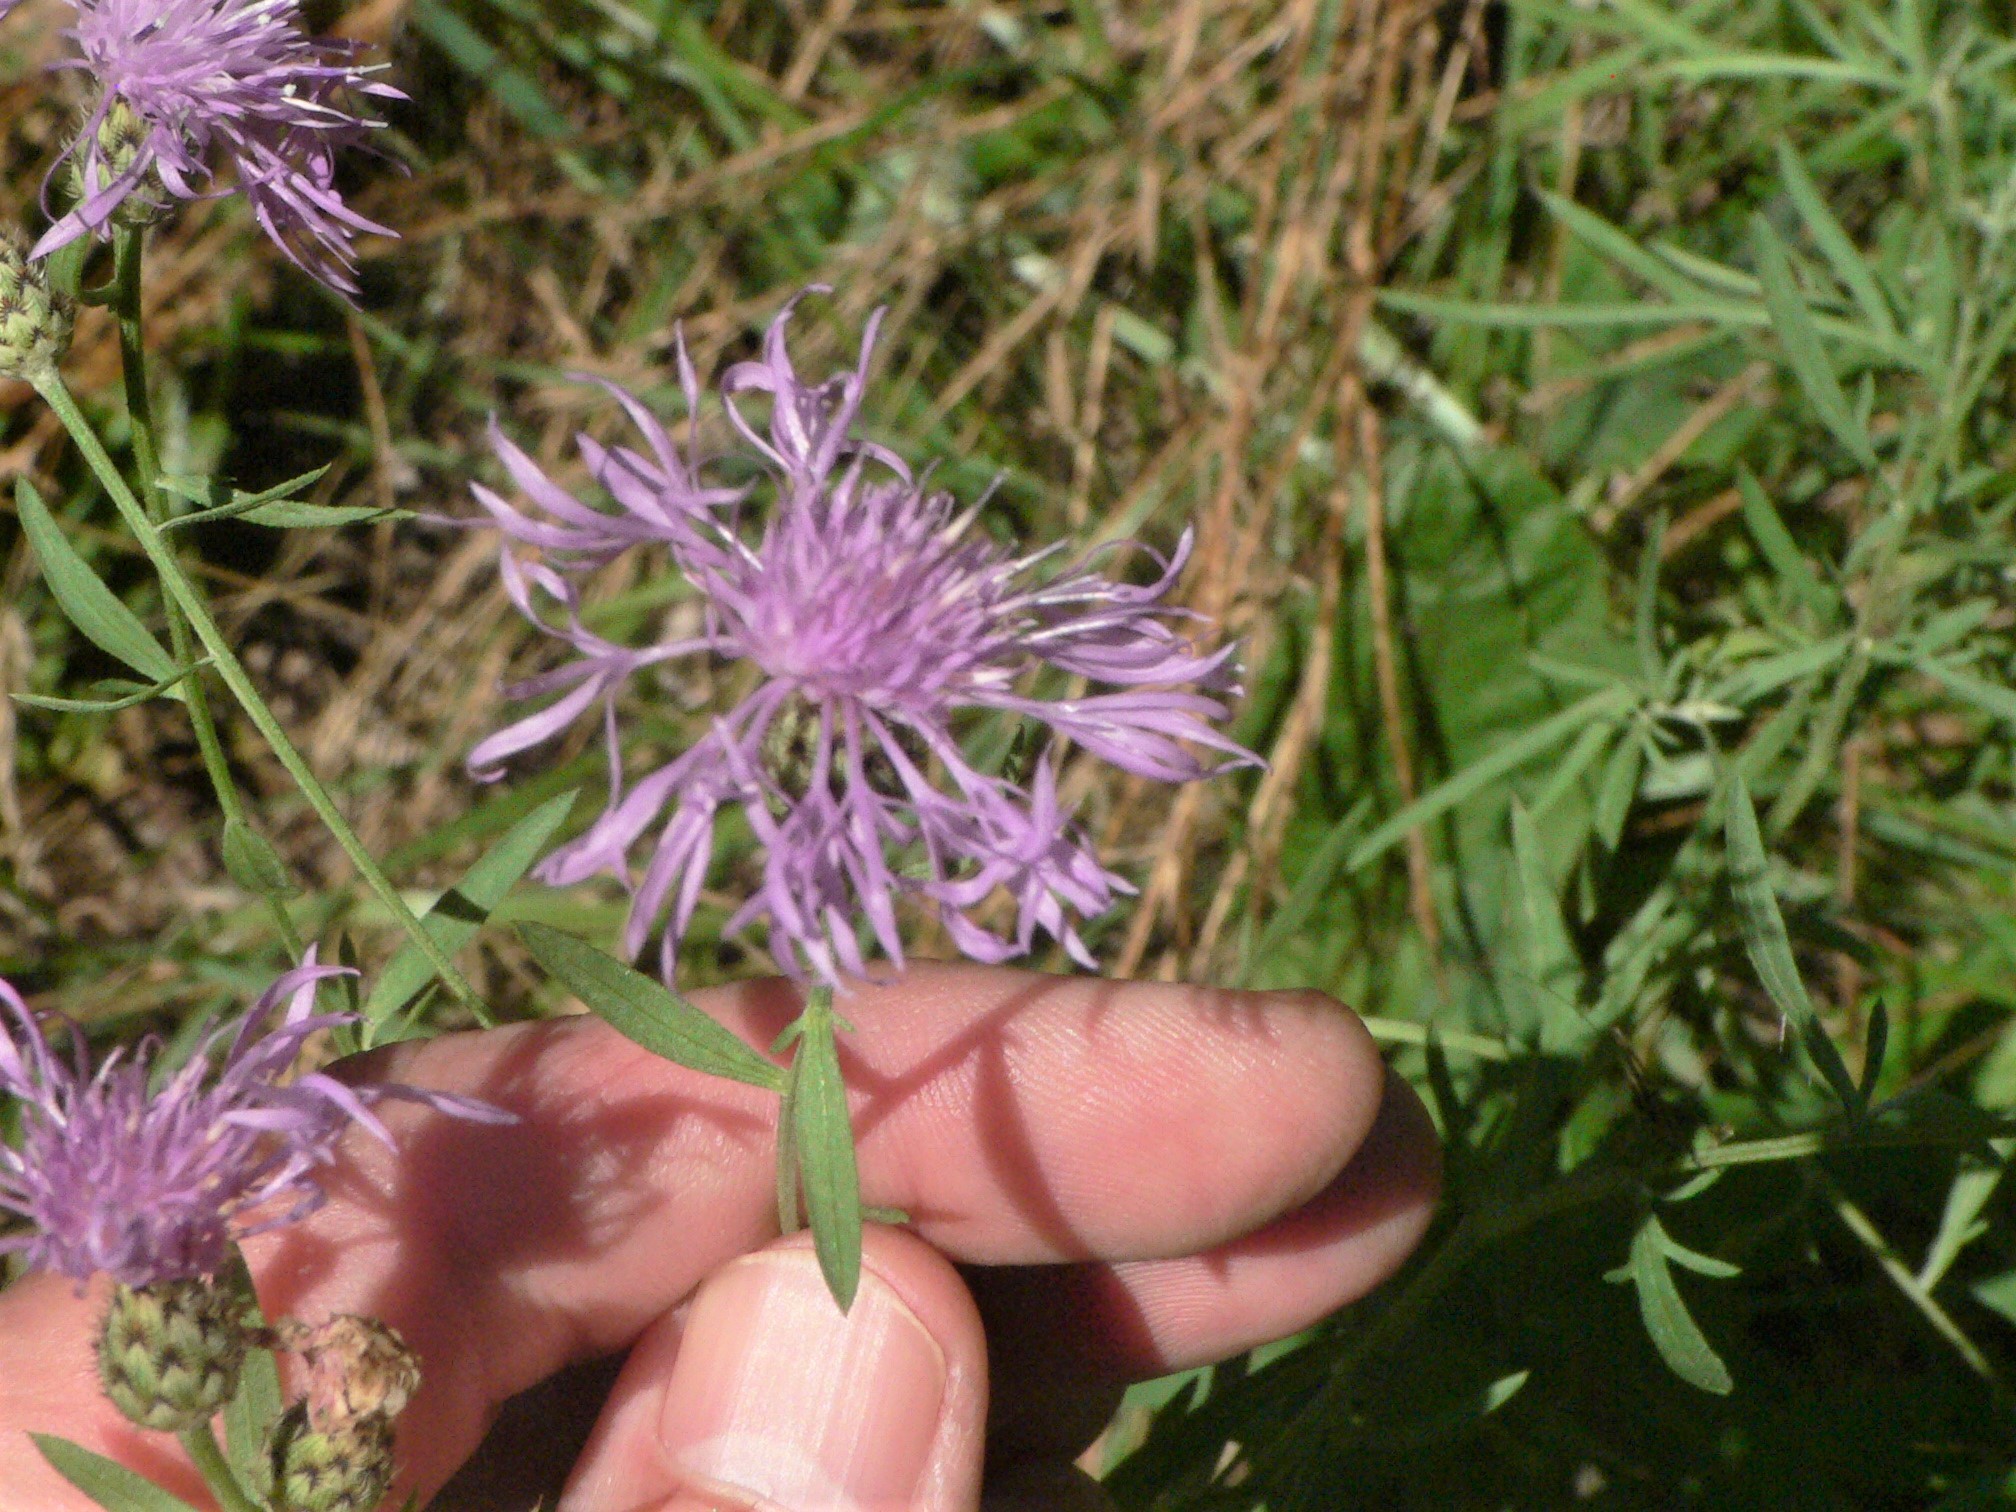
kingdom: Plantae
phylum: Tracheophyta
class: Magnoliopsida
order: Asterales
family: Asteraceae
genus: Centaurea
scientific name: Centaurea stoebe
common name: Spotted knapweed
